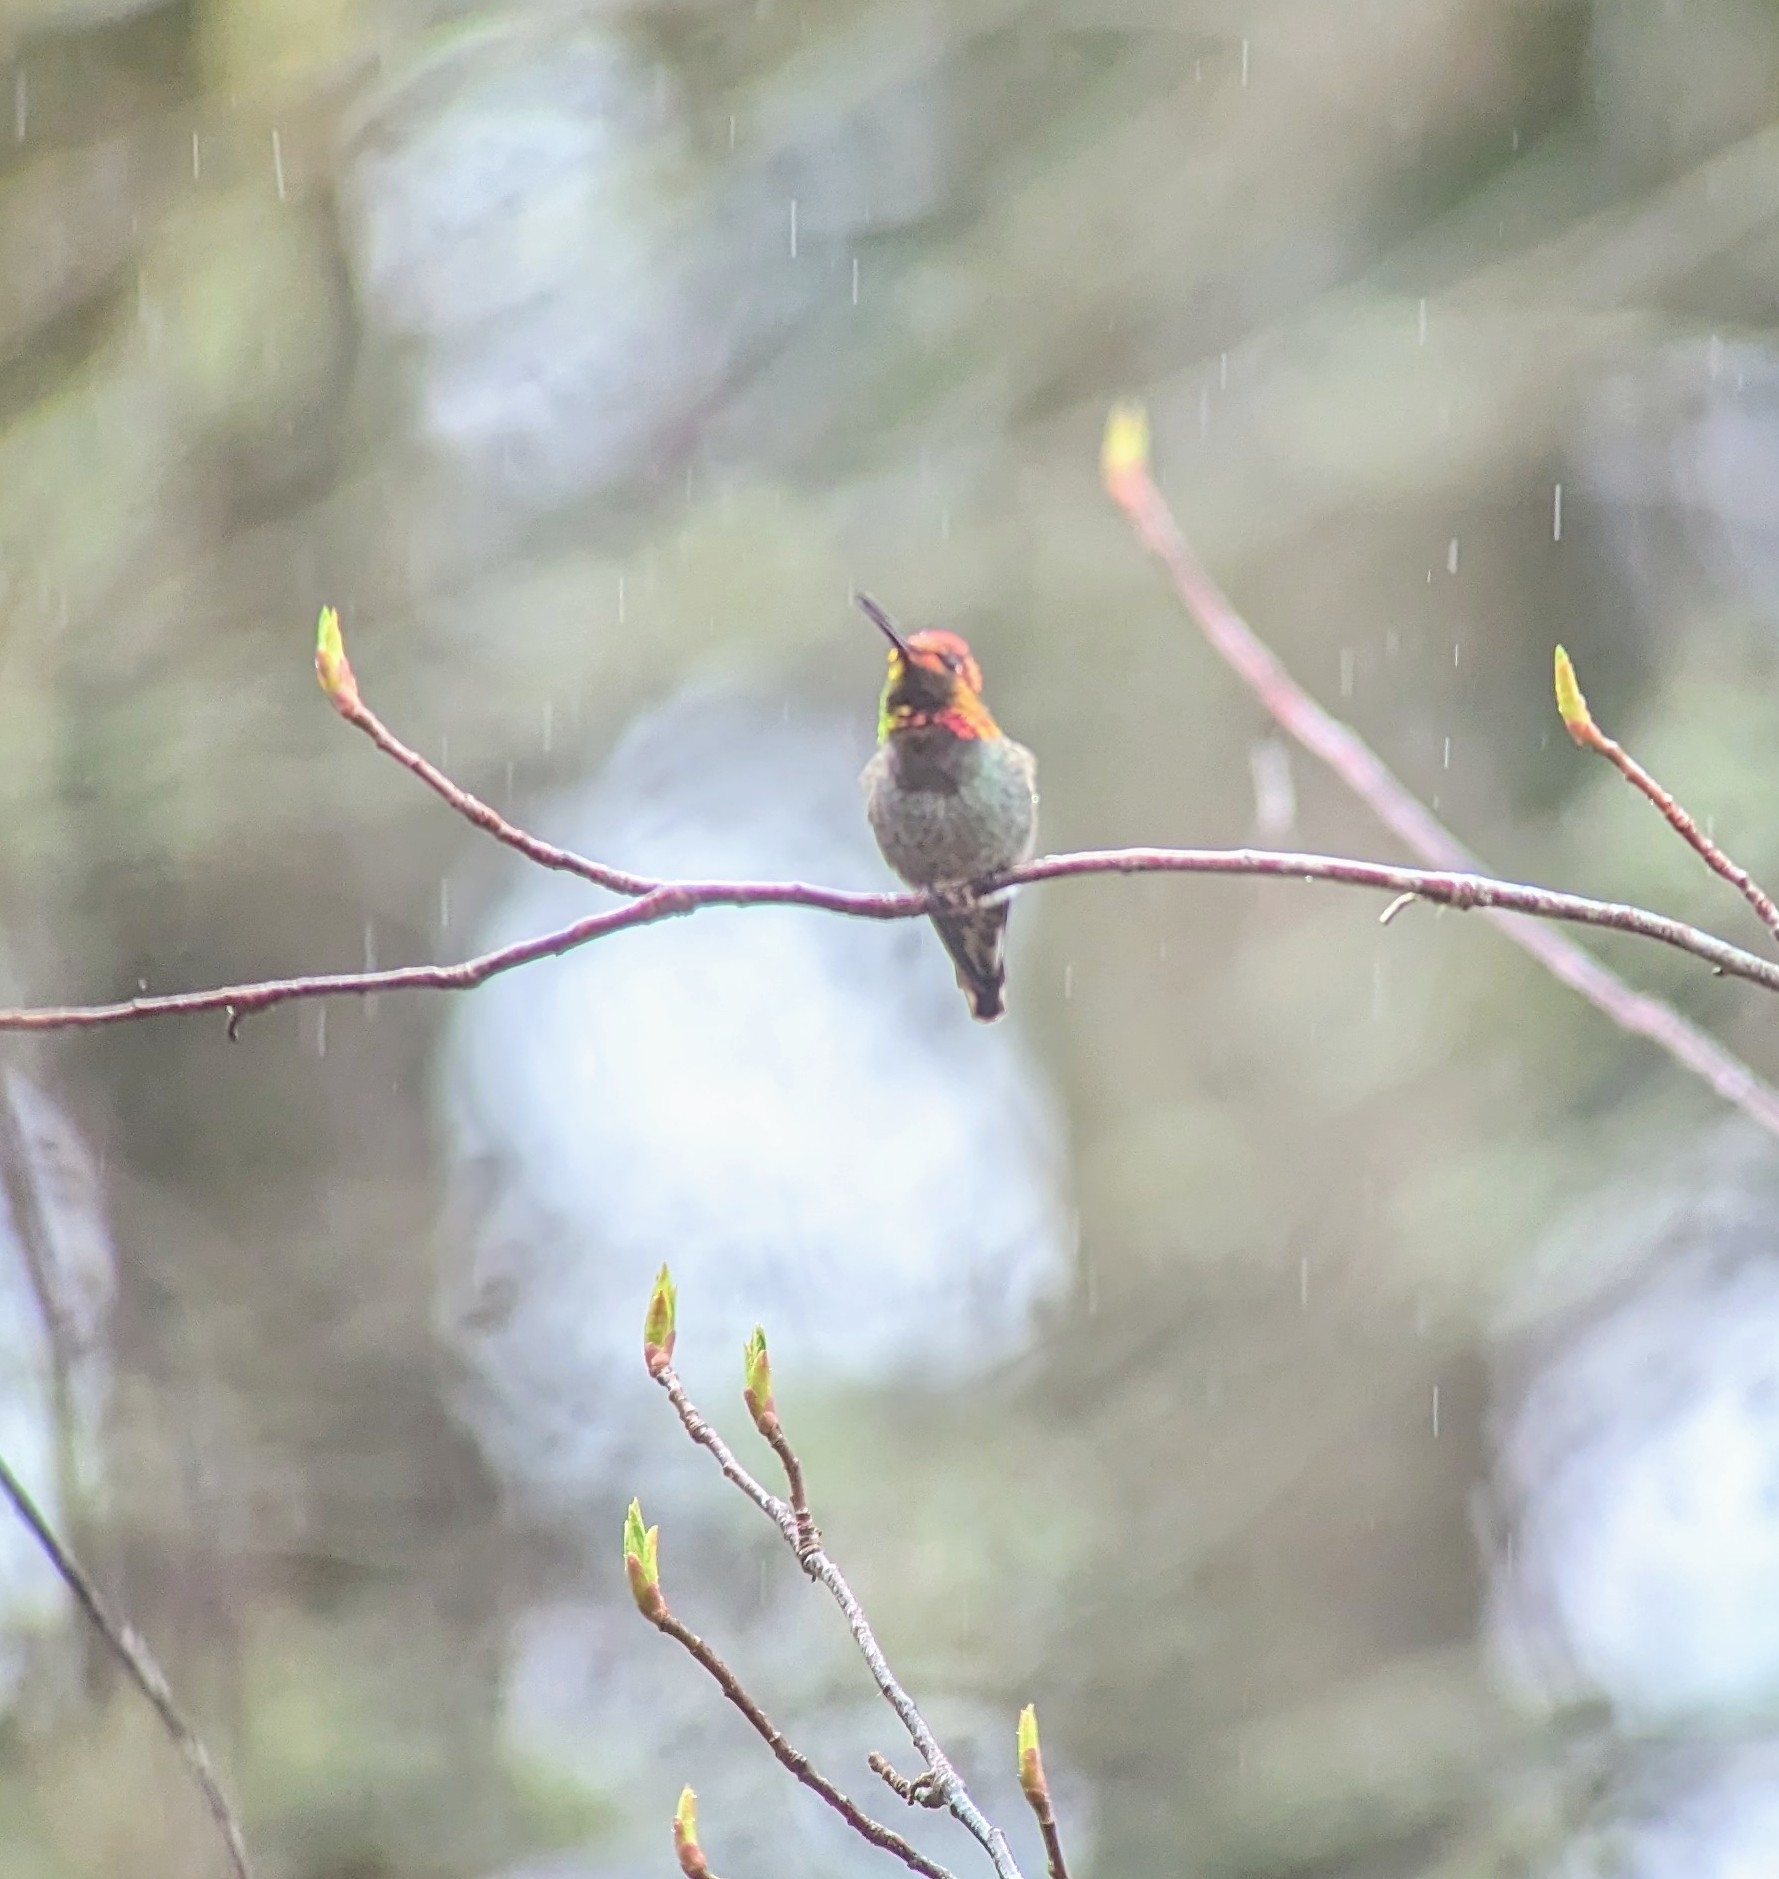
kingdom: Animalia
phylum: Chordata
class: Aves
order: Apodiformes
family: Trochilidae
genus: Calypte
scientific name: Calypte anna
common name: Anna's hummingbird
